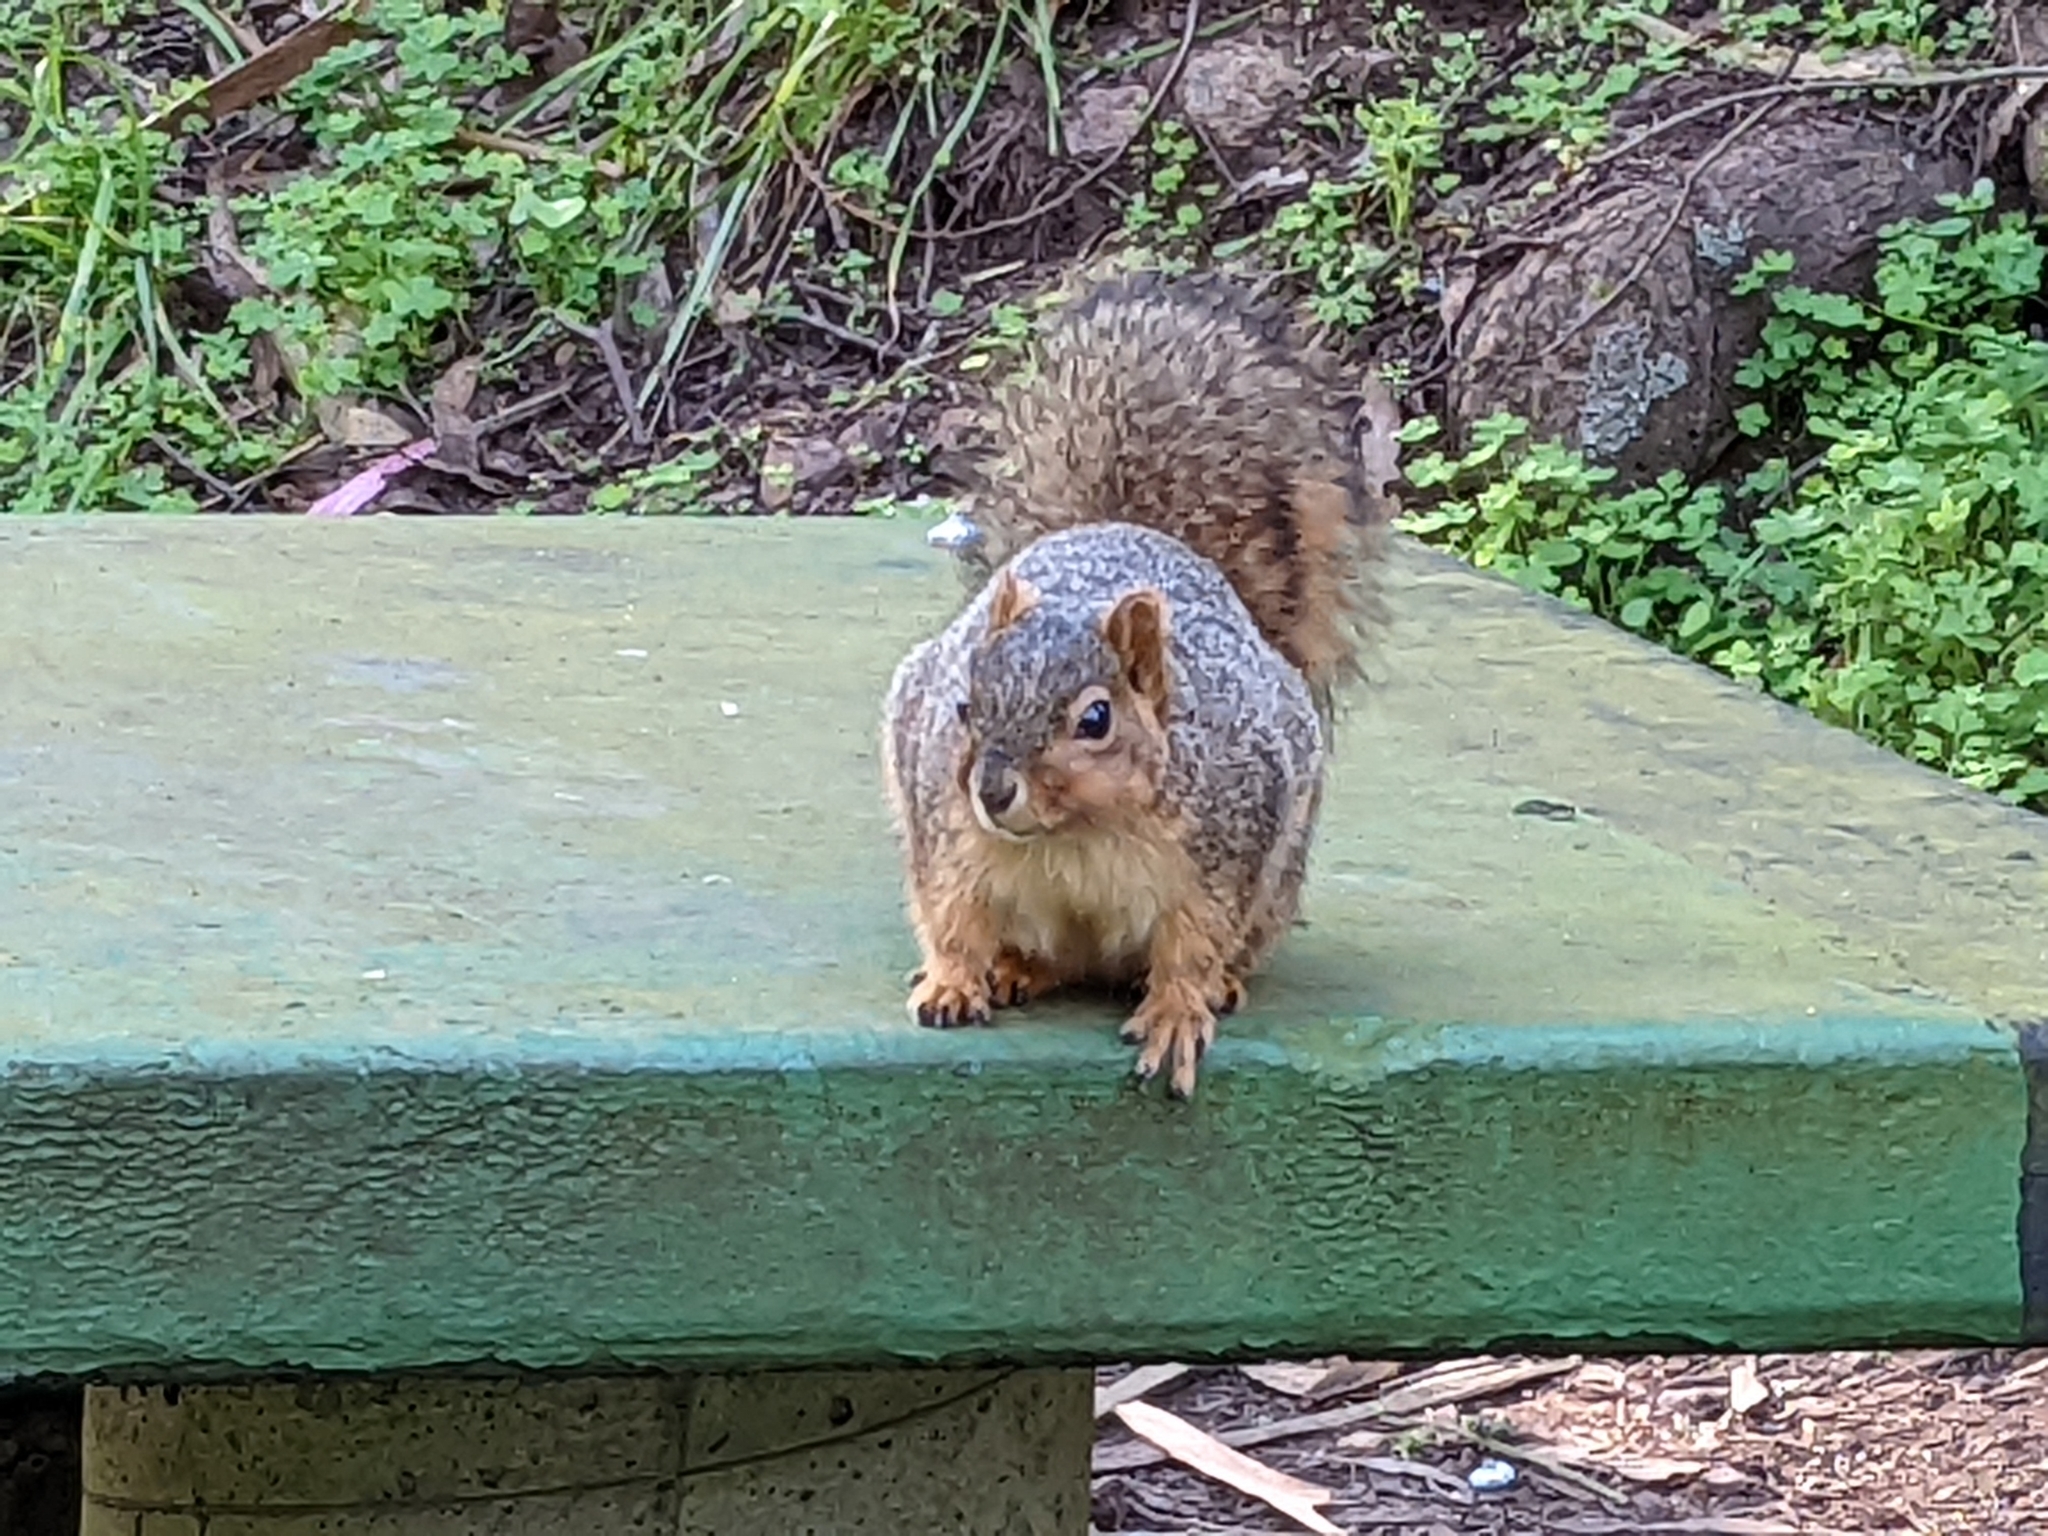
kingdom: Animalia
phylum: Chordata
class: Mammalia
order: Rodentia
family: Sciuridae
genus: Sciurus
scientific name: Sciurus niger
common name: Fox squirrel
